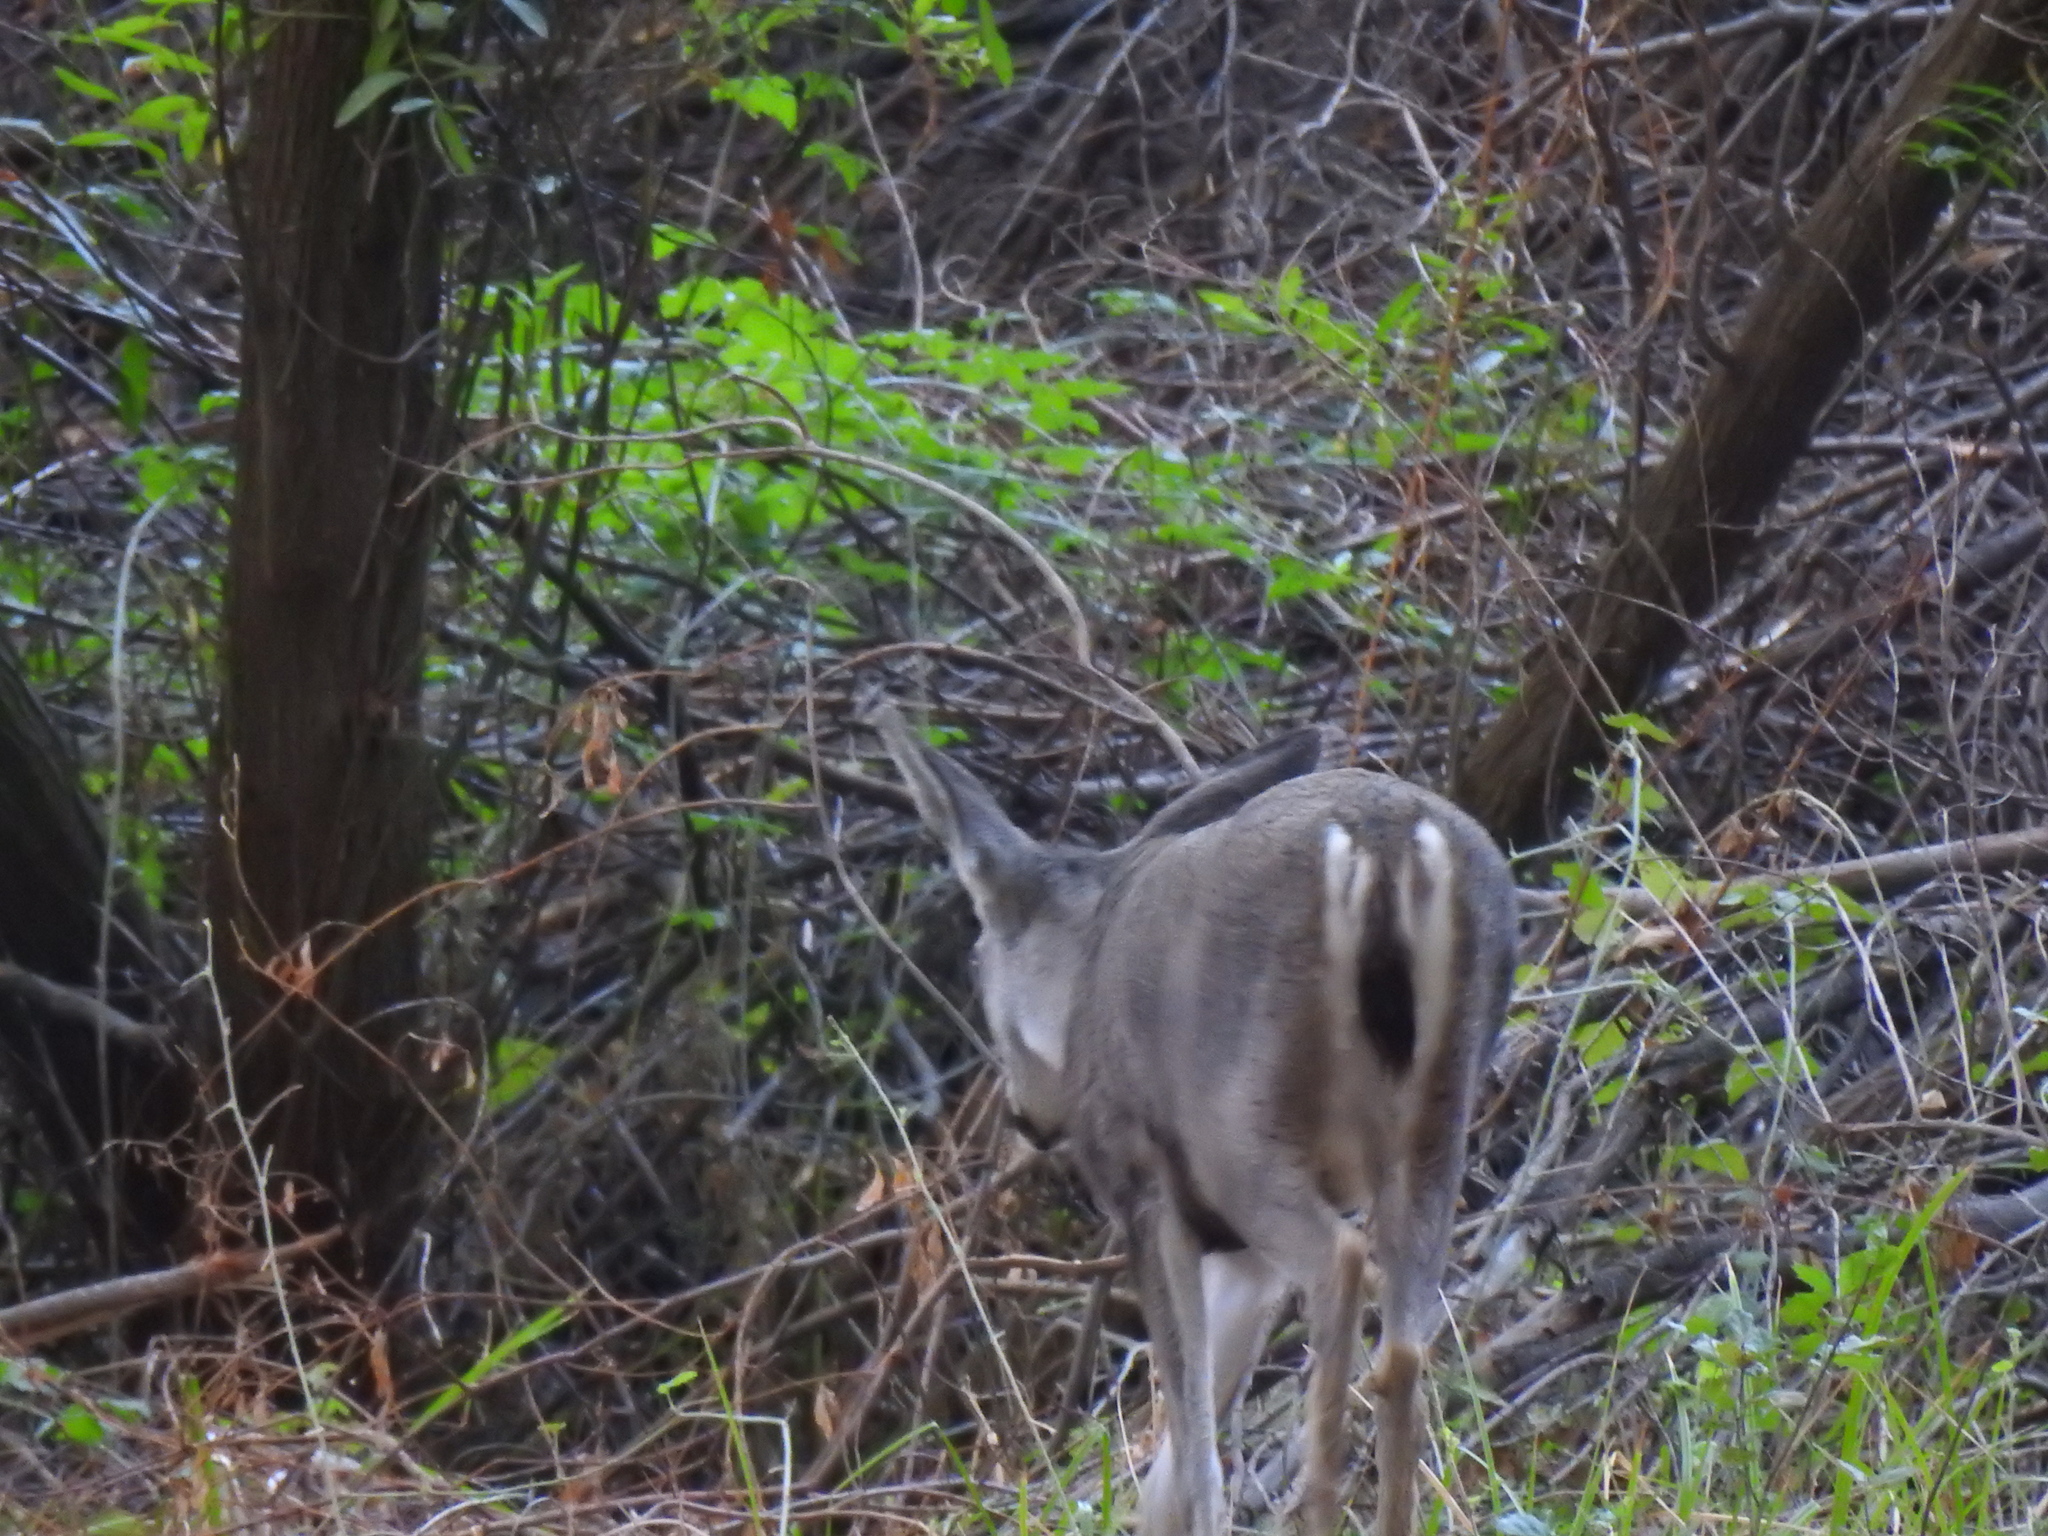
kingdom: Animalia
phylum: Chordata
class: Mammalia
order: Artiodactyla
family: Cervidae
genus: Odocoileus
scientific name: Odocoileus hemionus
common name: Mule deer
